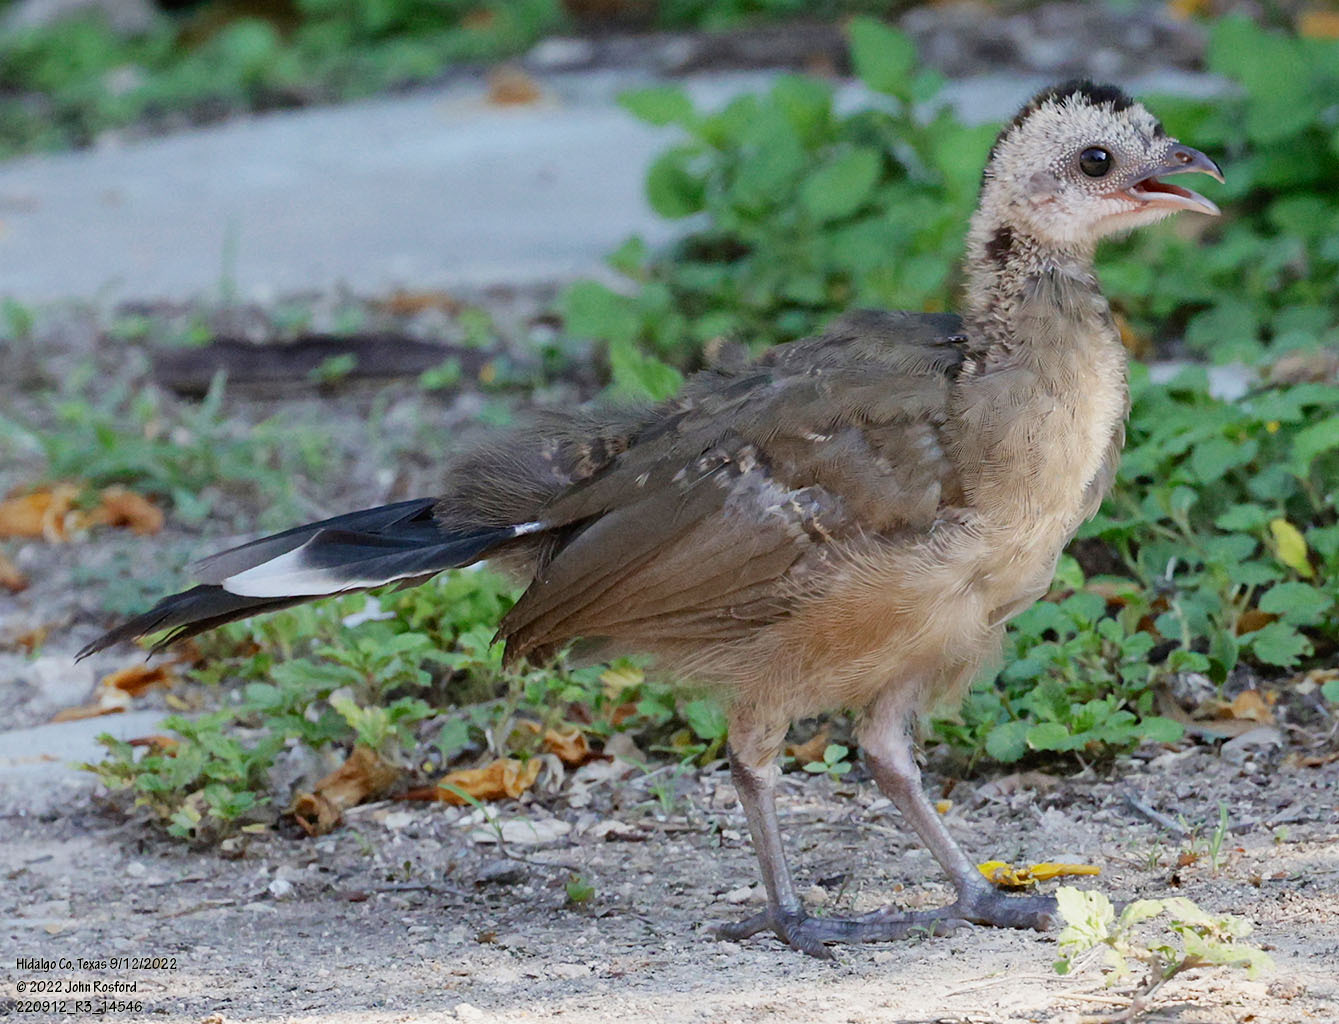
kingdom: Animalia
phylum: Chordata
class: Aves
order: Galliformes
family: Cracidae
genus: Ortalis
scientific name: Ortalis vetula
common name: Plain chachalaca
